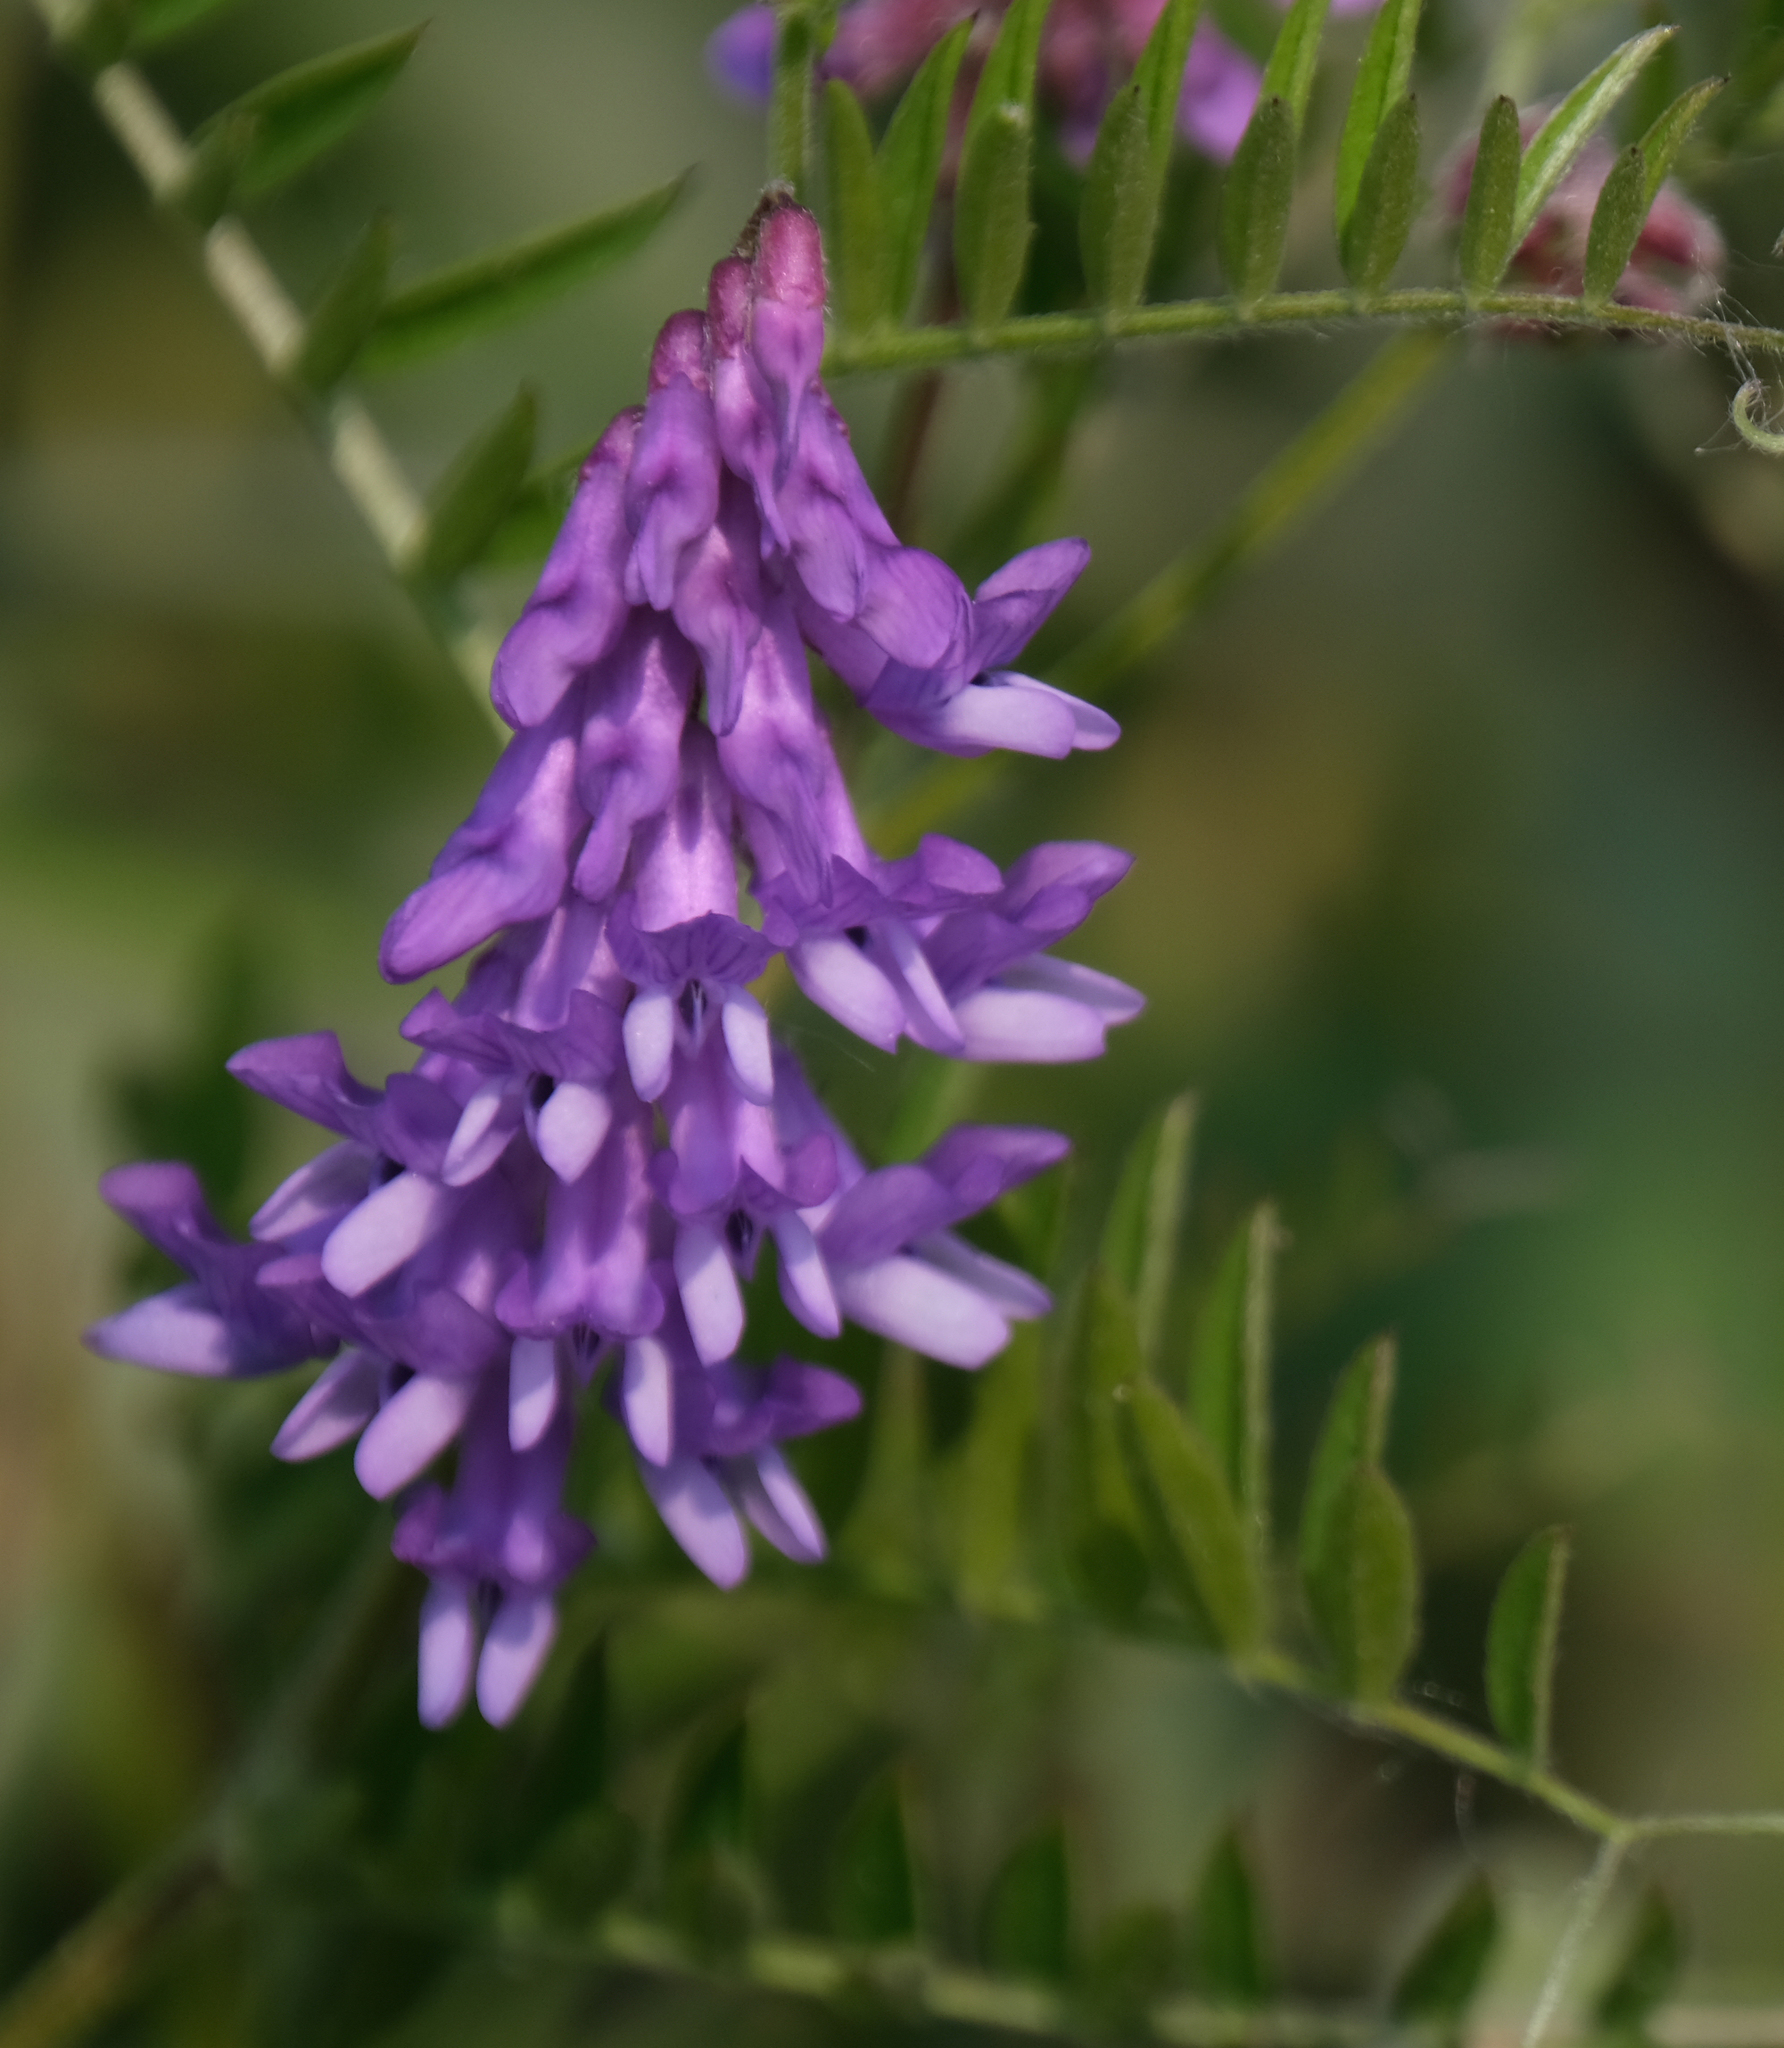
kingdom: Plantae
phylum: Tracheophyta
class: Magnoliopsida
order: Fabales
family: Fabaceae
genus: Vicia
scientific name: Vicia cracca
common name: Bird vetch
